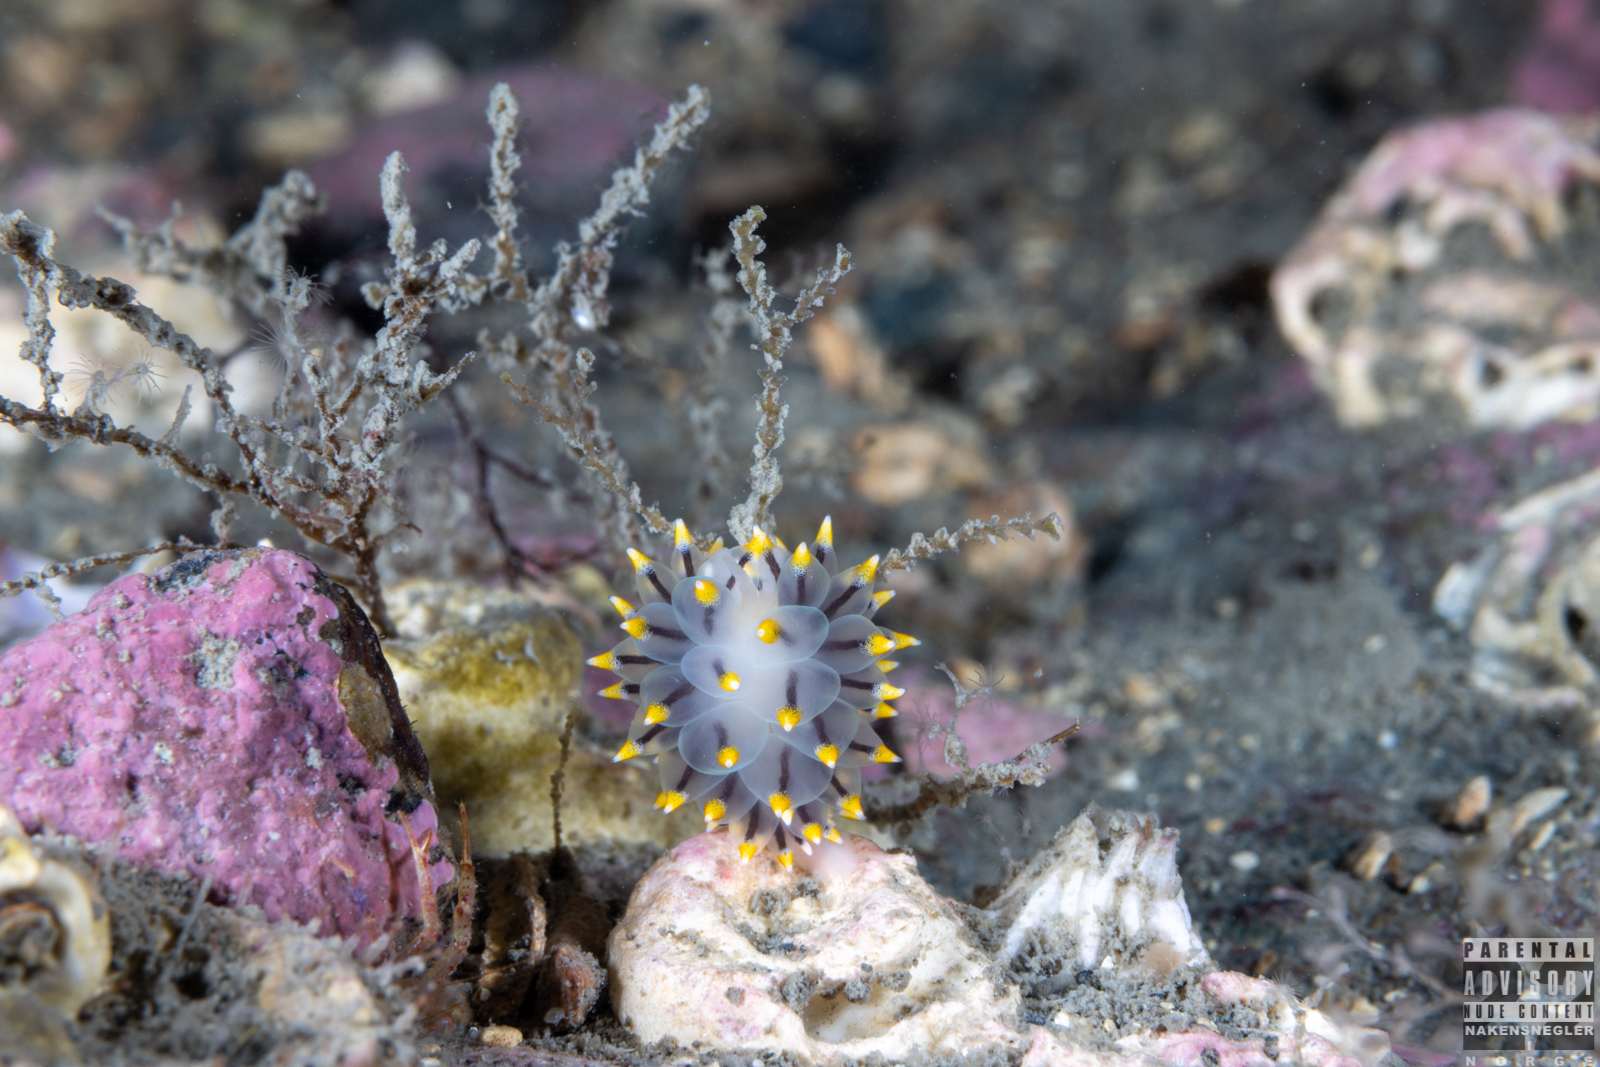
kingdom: Animalia
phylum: Mollusca
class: Gastropoda
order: Nudibranchia
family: Eubranchidae
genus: Eubranchus
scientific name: Eubranchus tricolor
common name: Painted balloon aeolis
